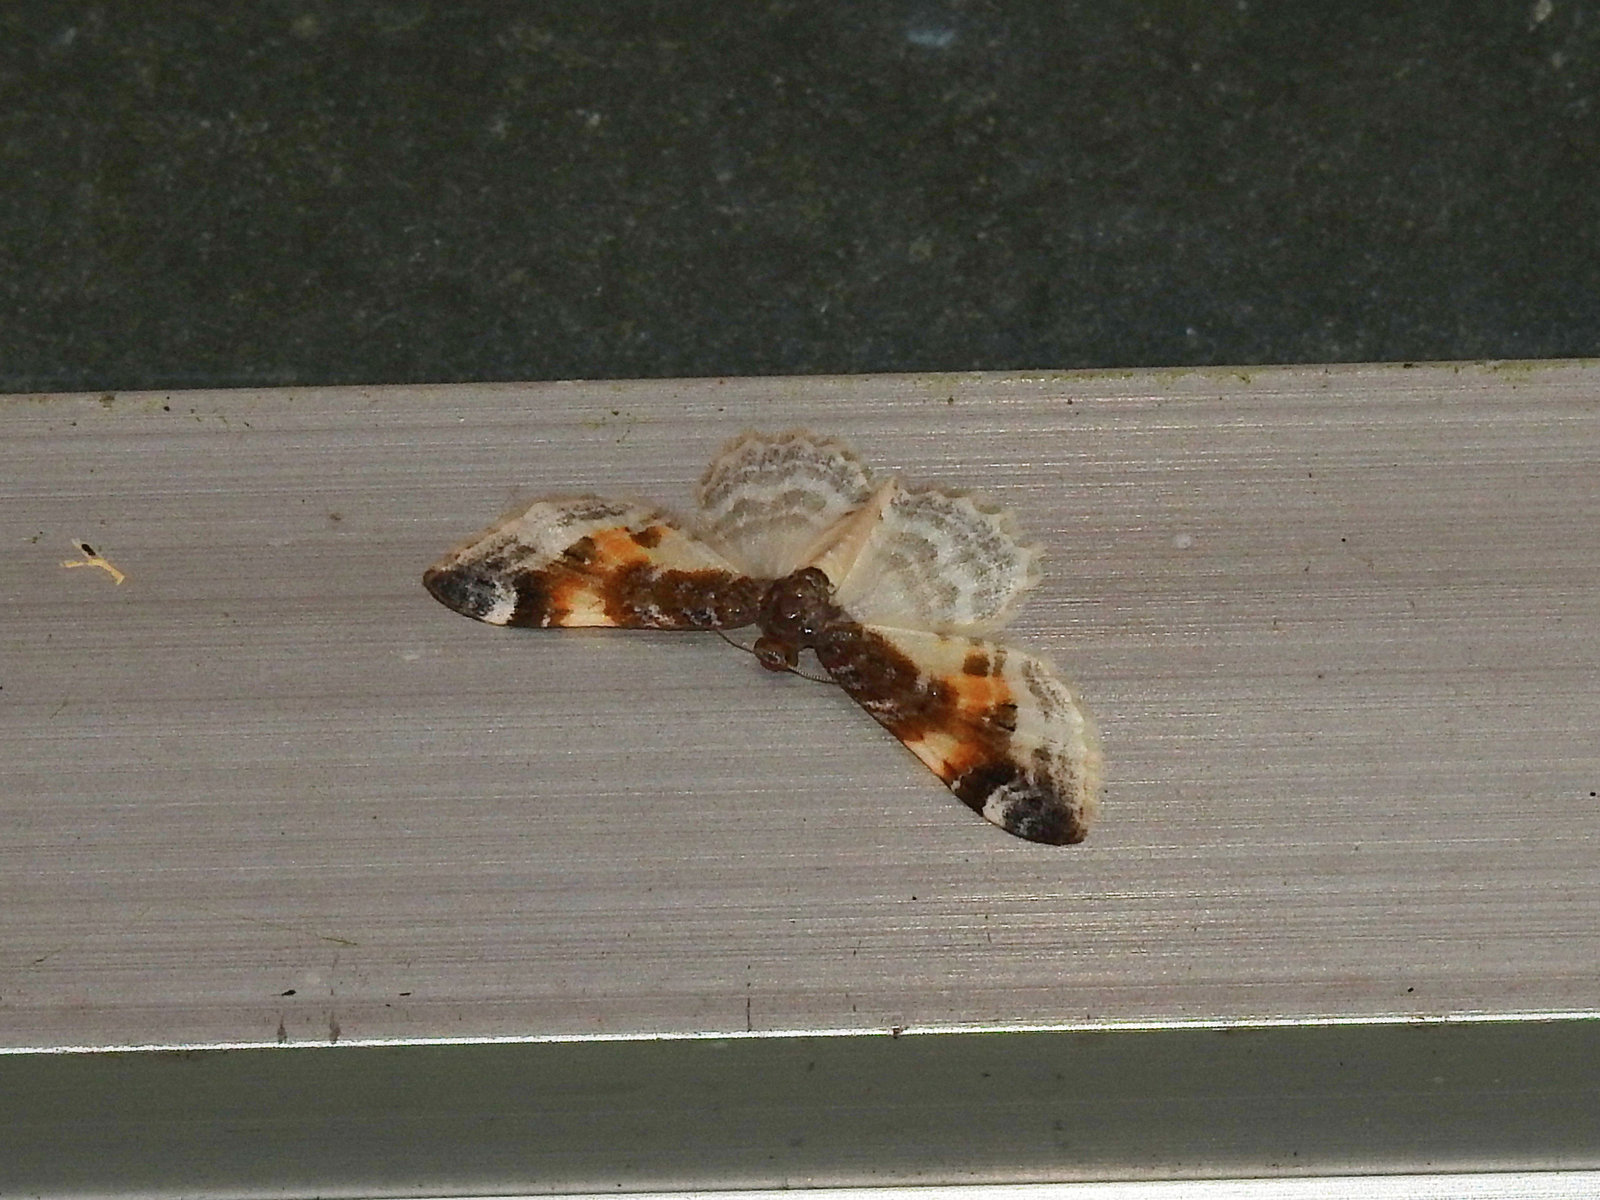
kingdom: Animalia
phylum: Arthropoda
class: Insecta
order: Lepidoptera
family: Geometridae
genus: Agnibesa
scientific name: Agnibesa plumbeolineata
